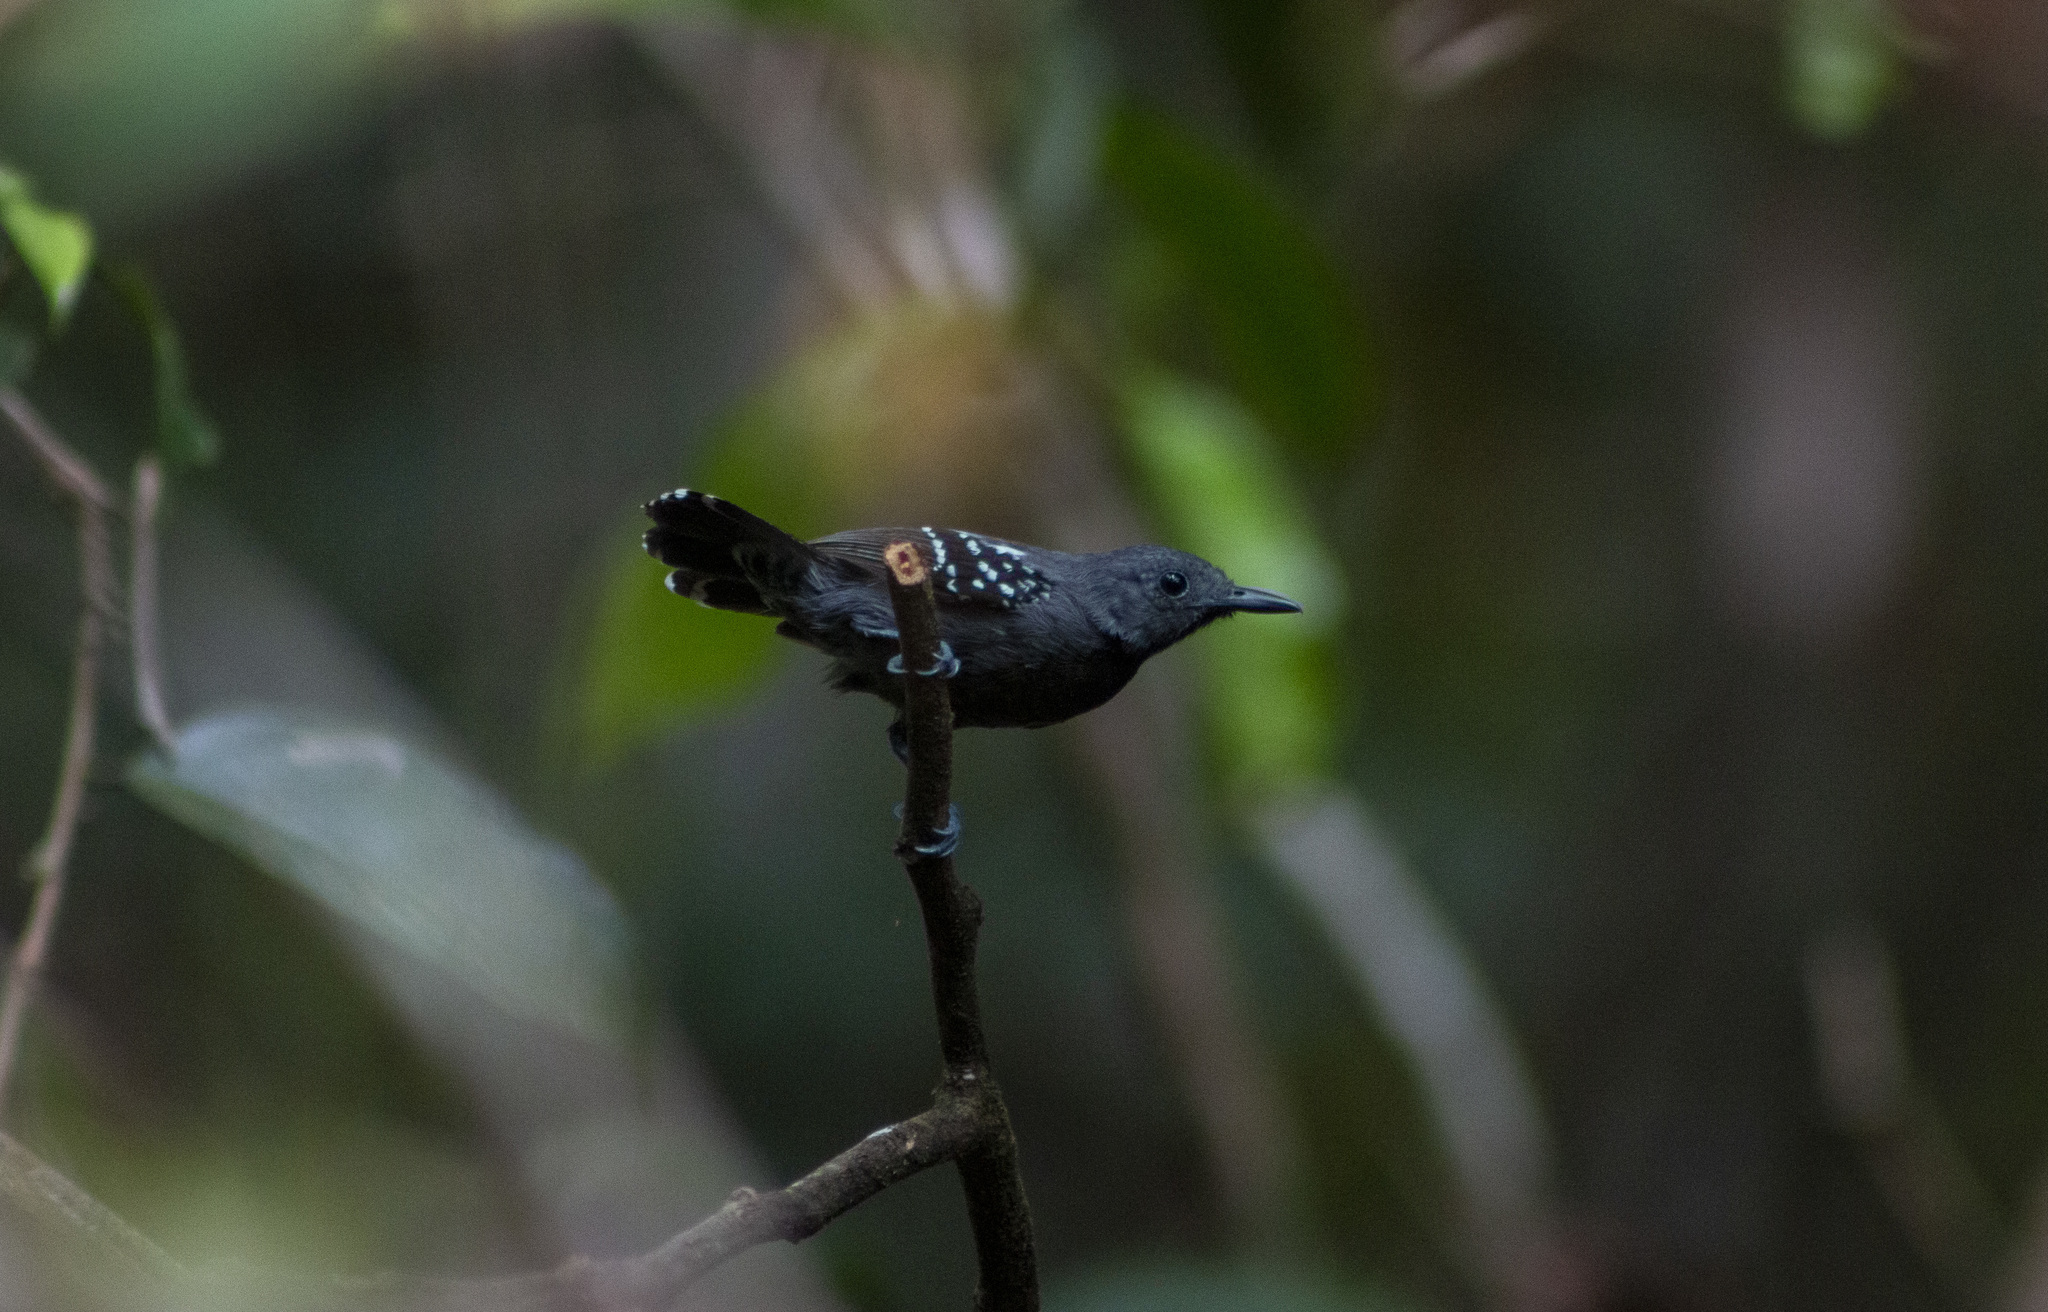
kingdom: Animalia
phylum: Chordata
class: Aves
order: Passeriformes
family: Thamnophilidae
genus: Myrmotherula
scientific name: Myrmotherula axillaris
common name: White-flanked antwren
